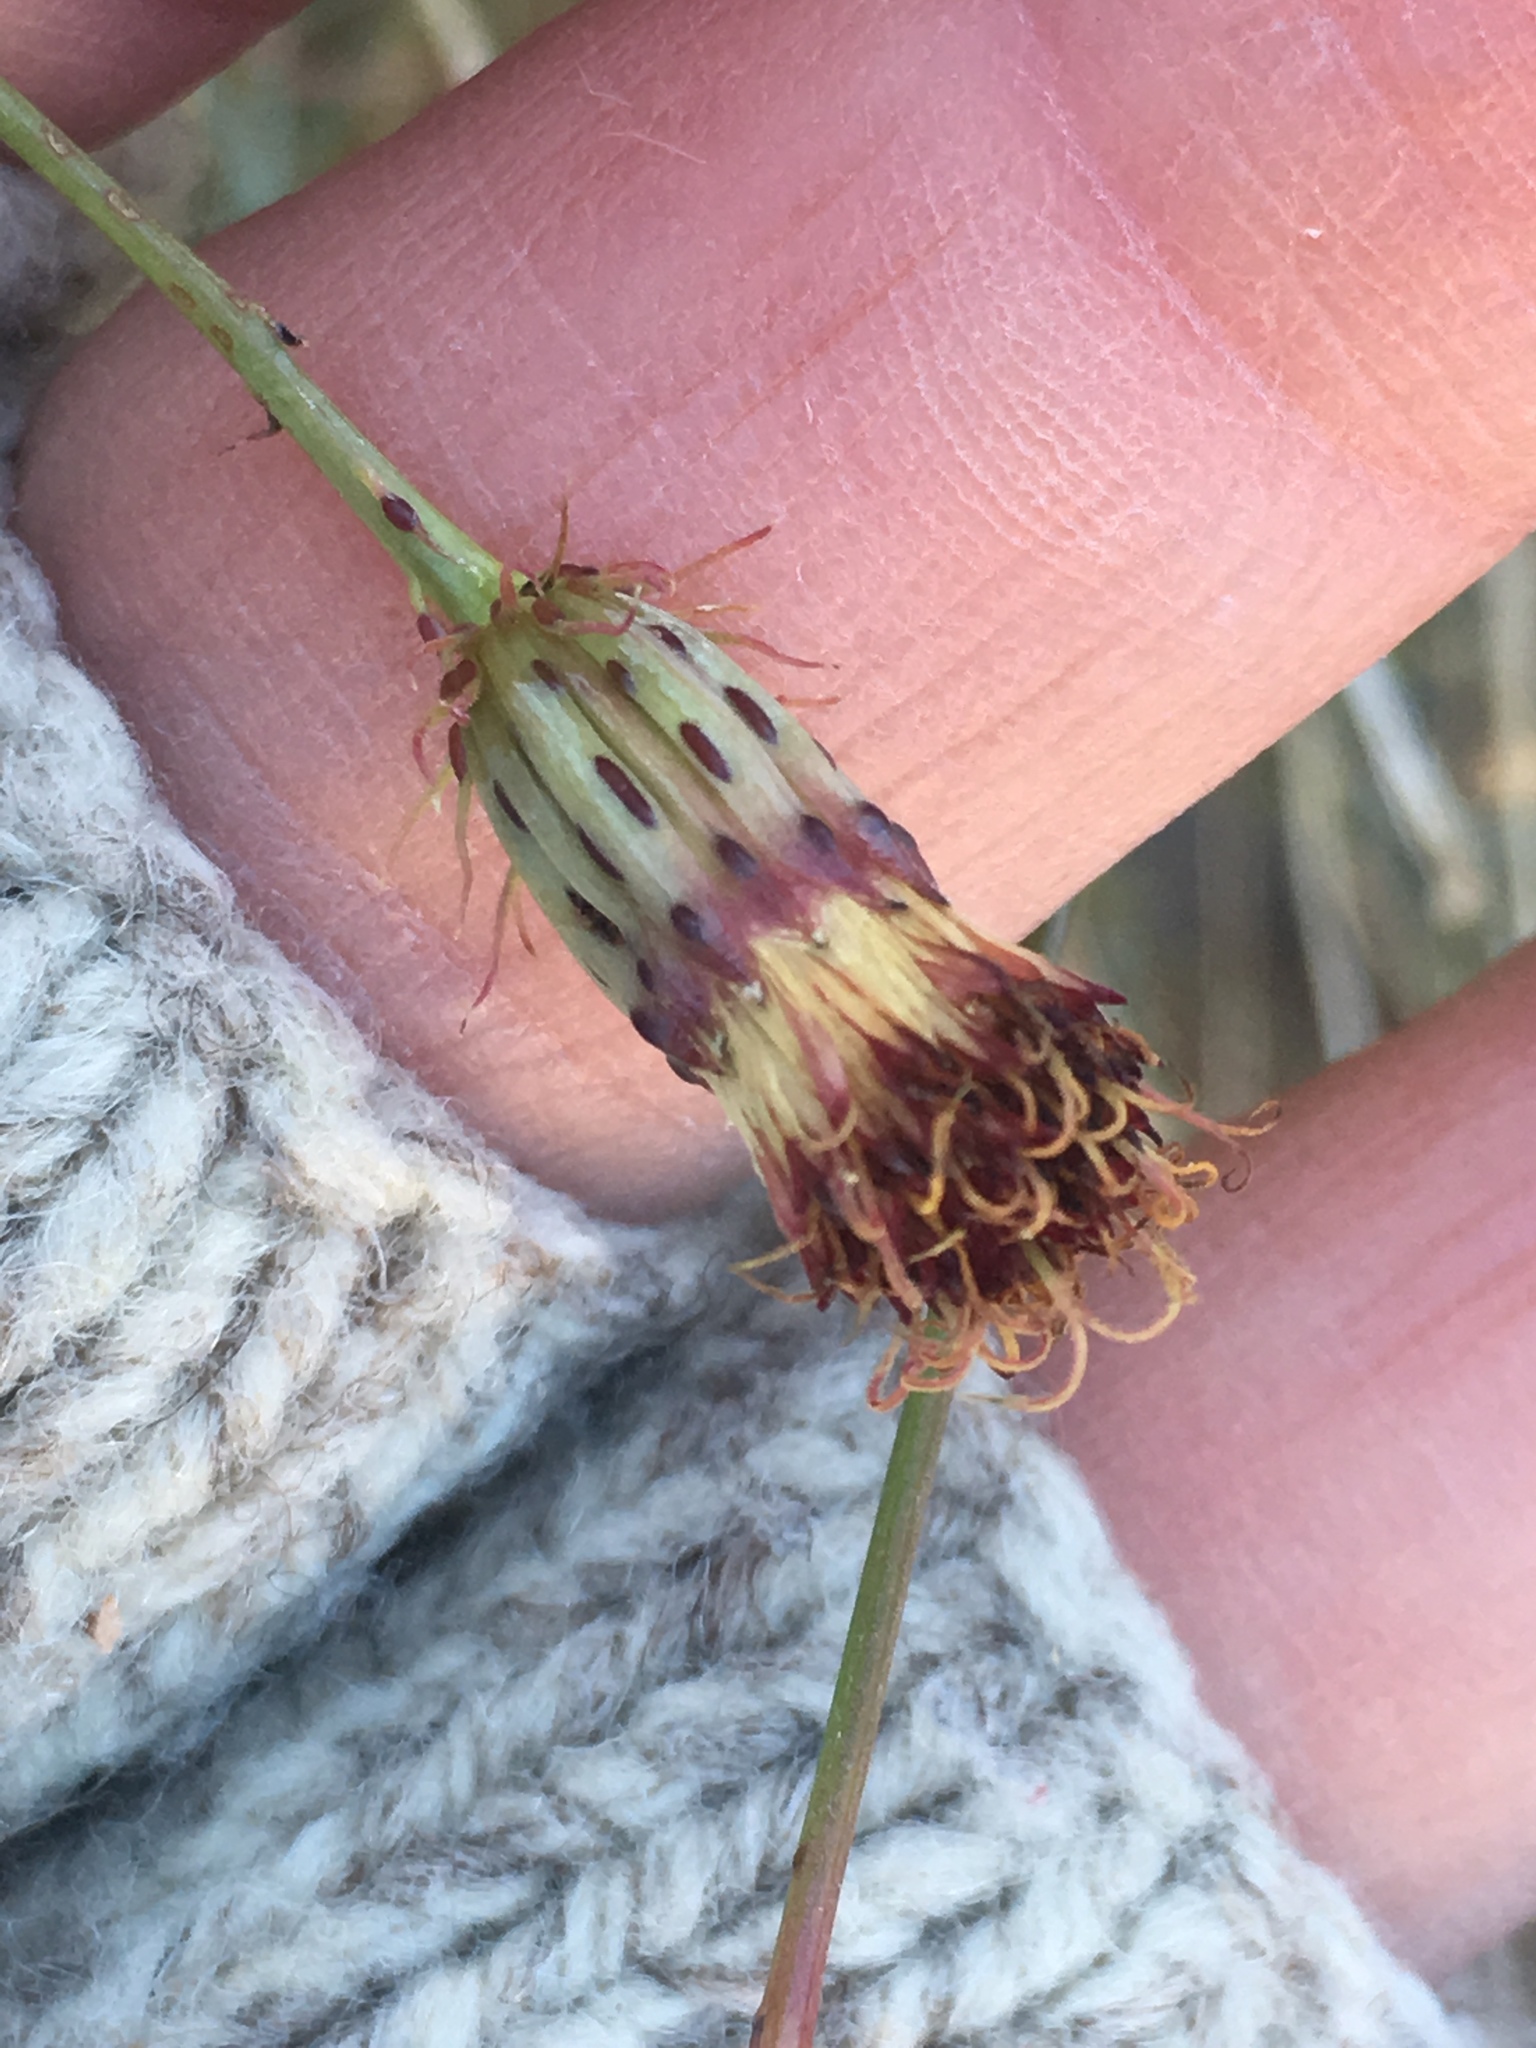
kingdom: Plantae
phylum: Tracheophyta
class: Magnoliopsida
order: Asterales
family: Asteraceae
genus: Adenophyllum
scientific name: Adenophyllum porophylloides
